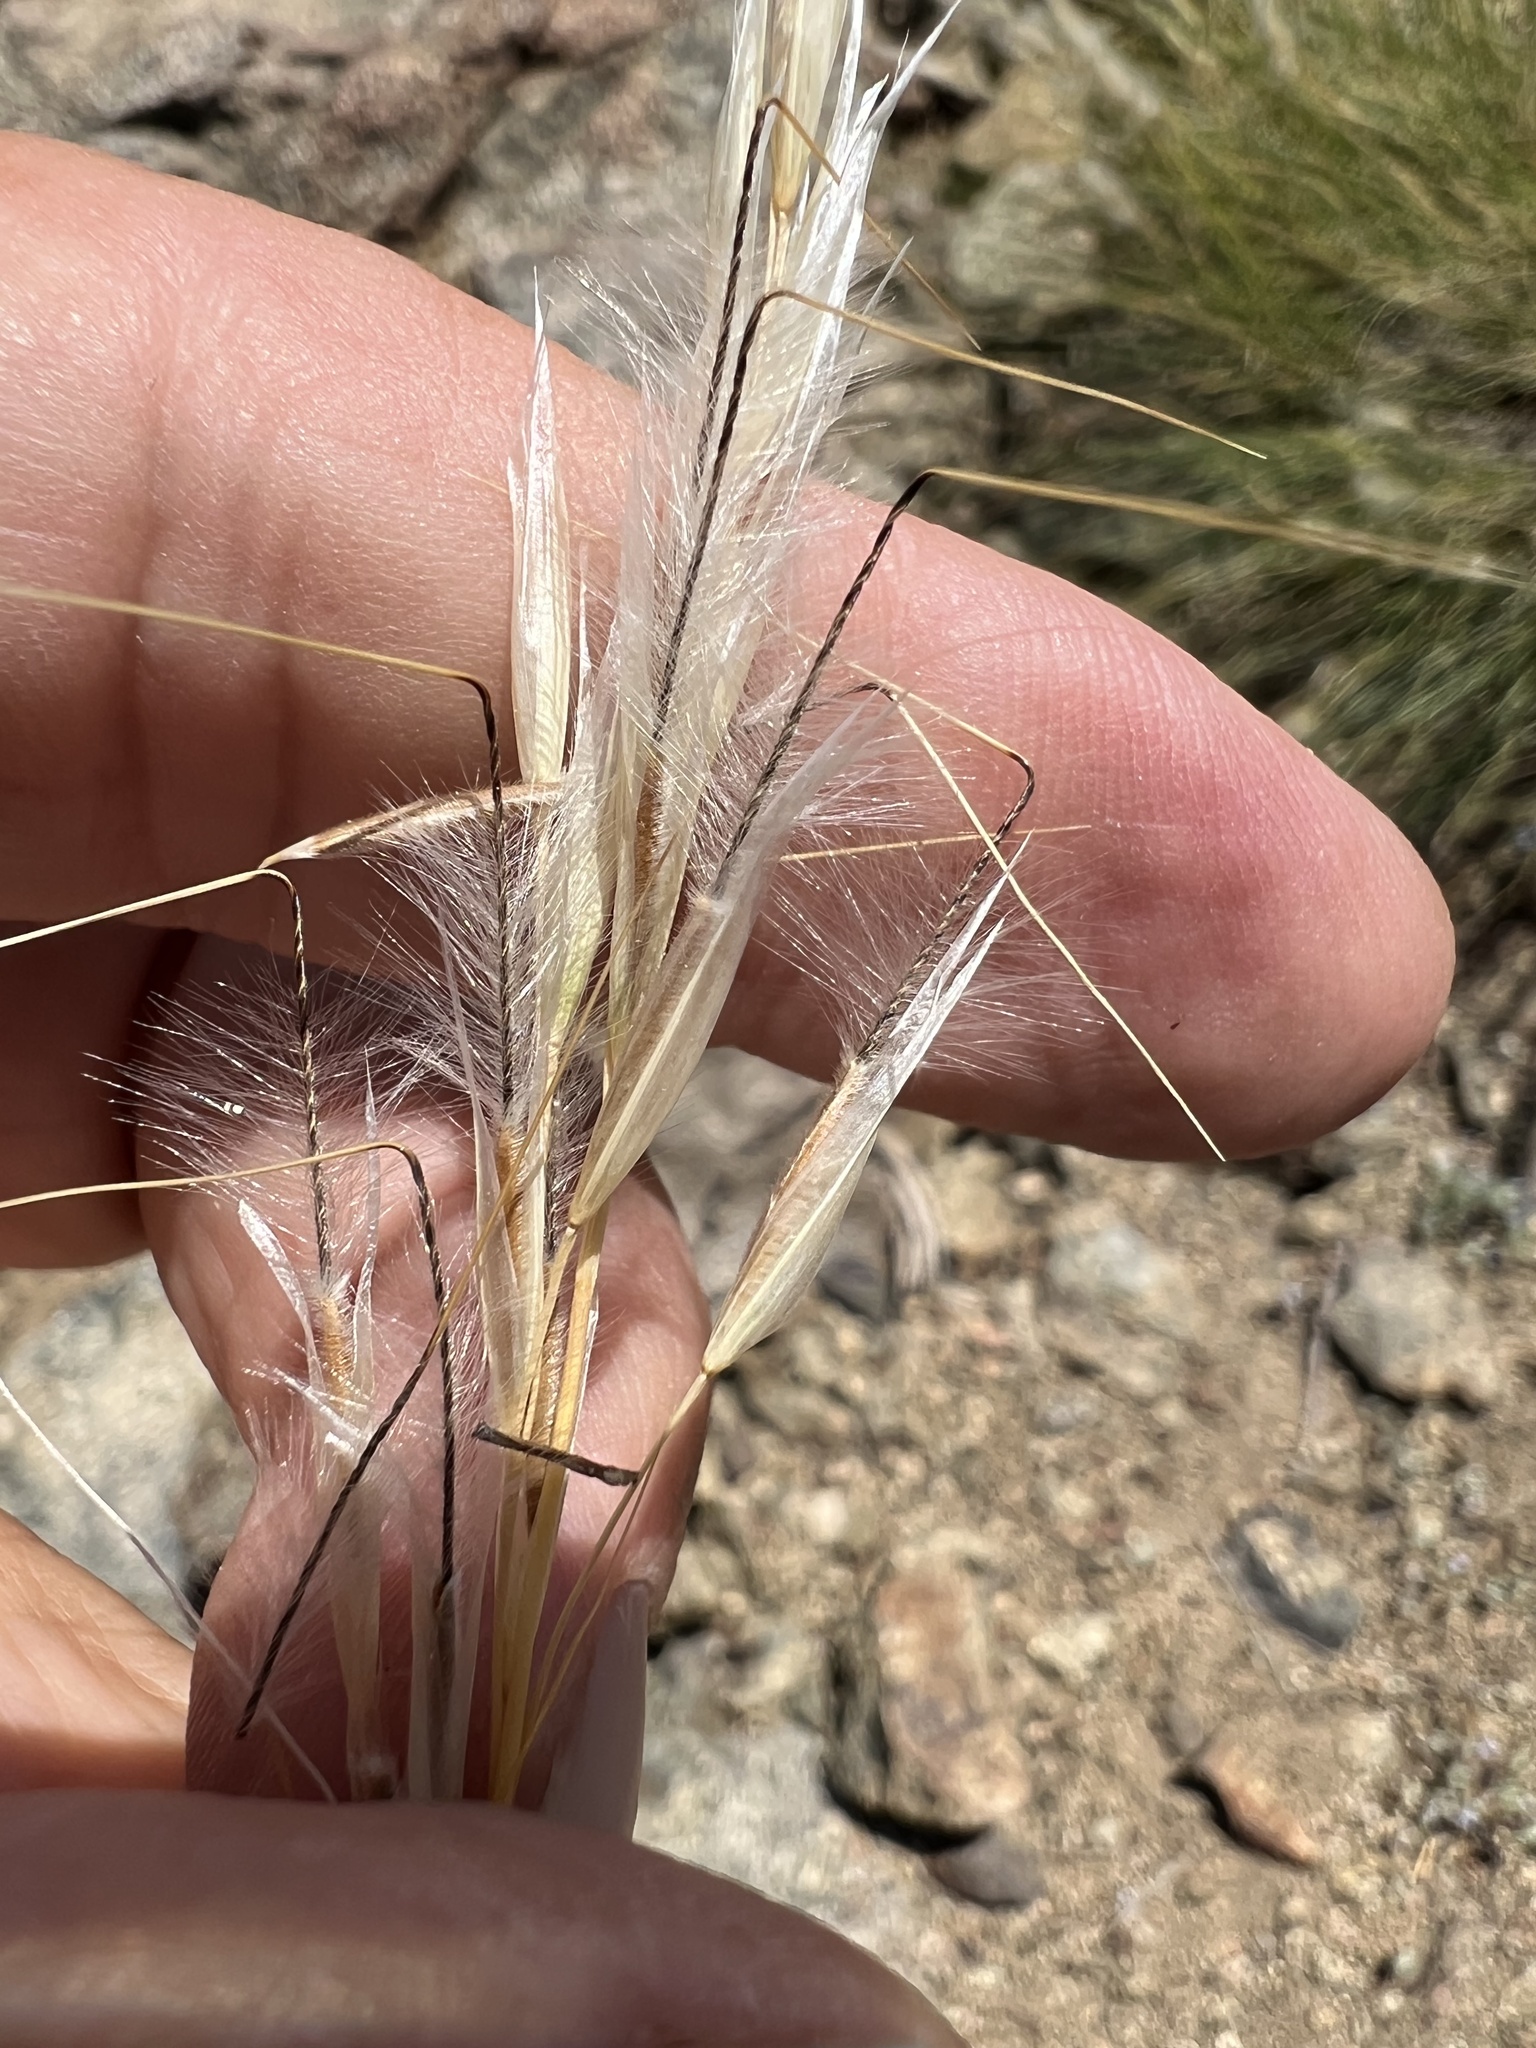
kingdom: Plantae
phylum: Tracheophyta
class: Liliopsida
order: Poales
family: Poaceae
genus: Pappostipa
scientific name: Pappostipa speciosa
